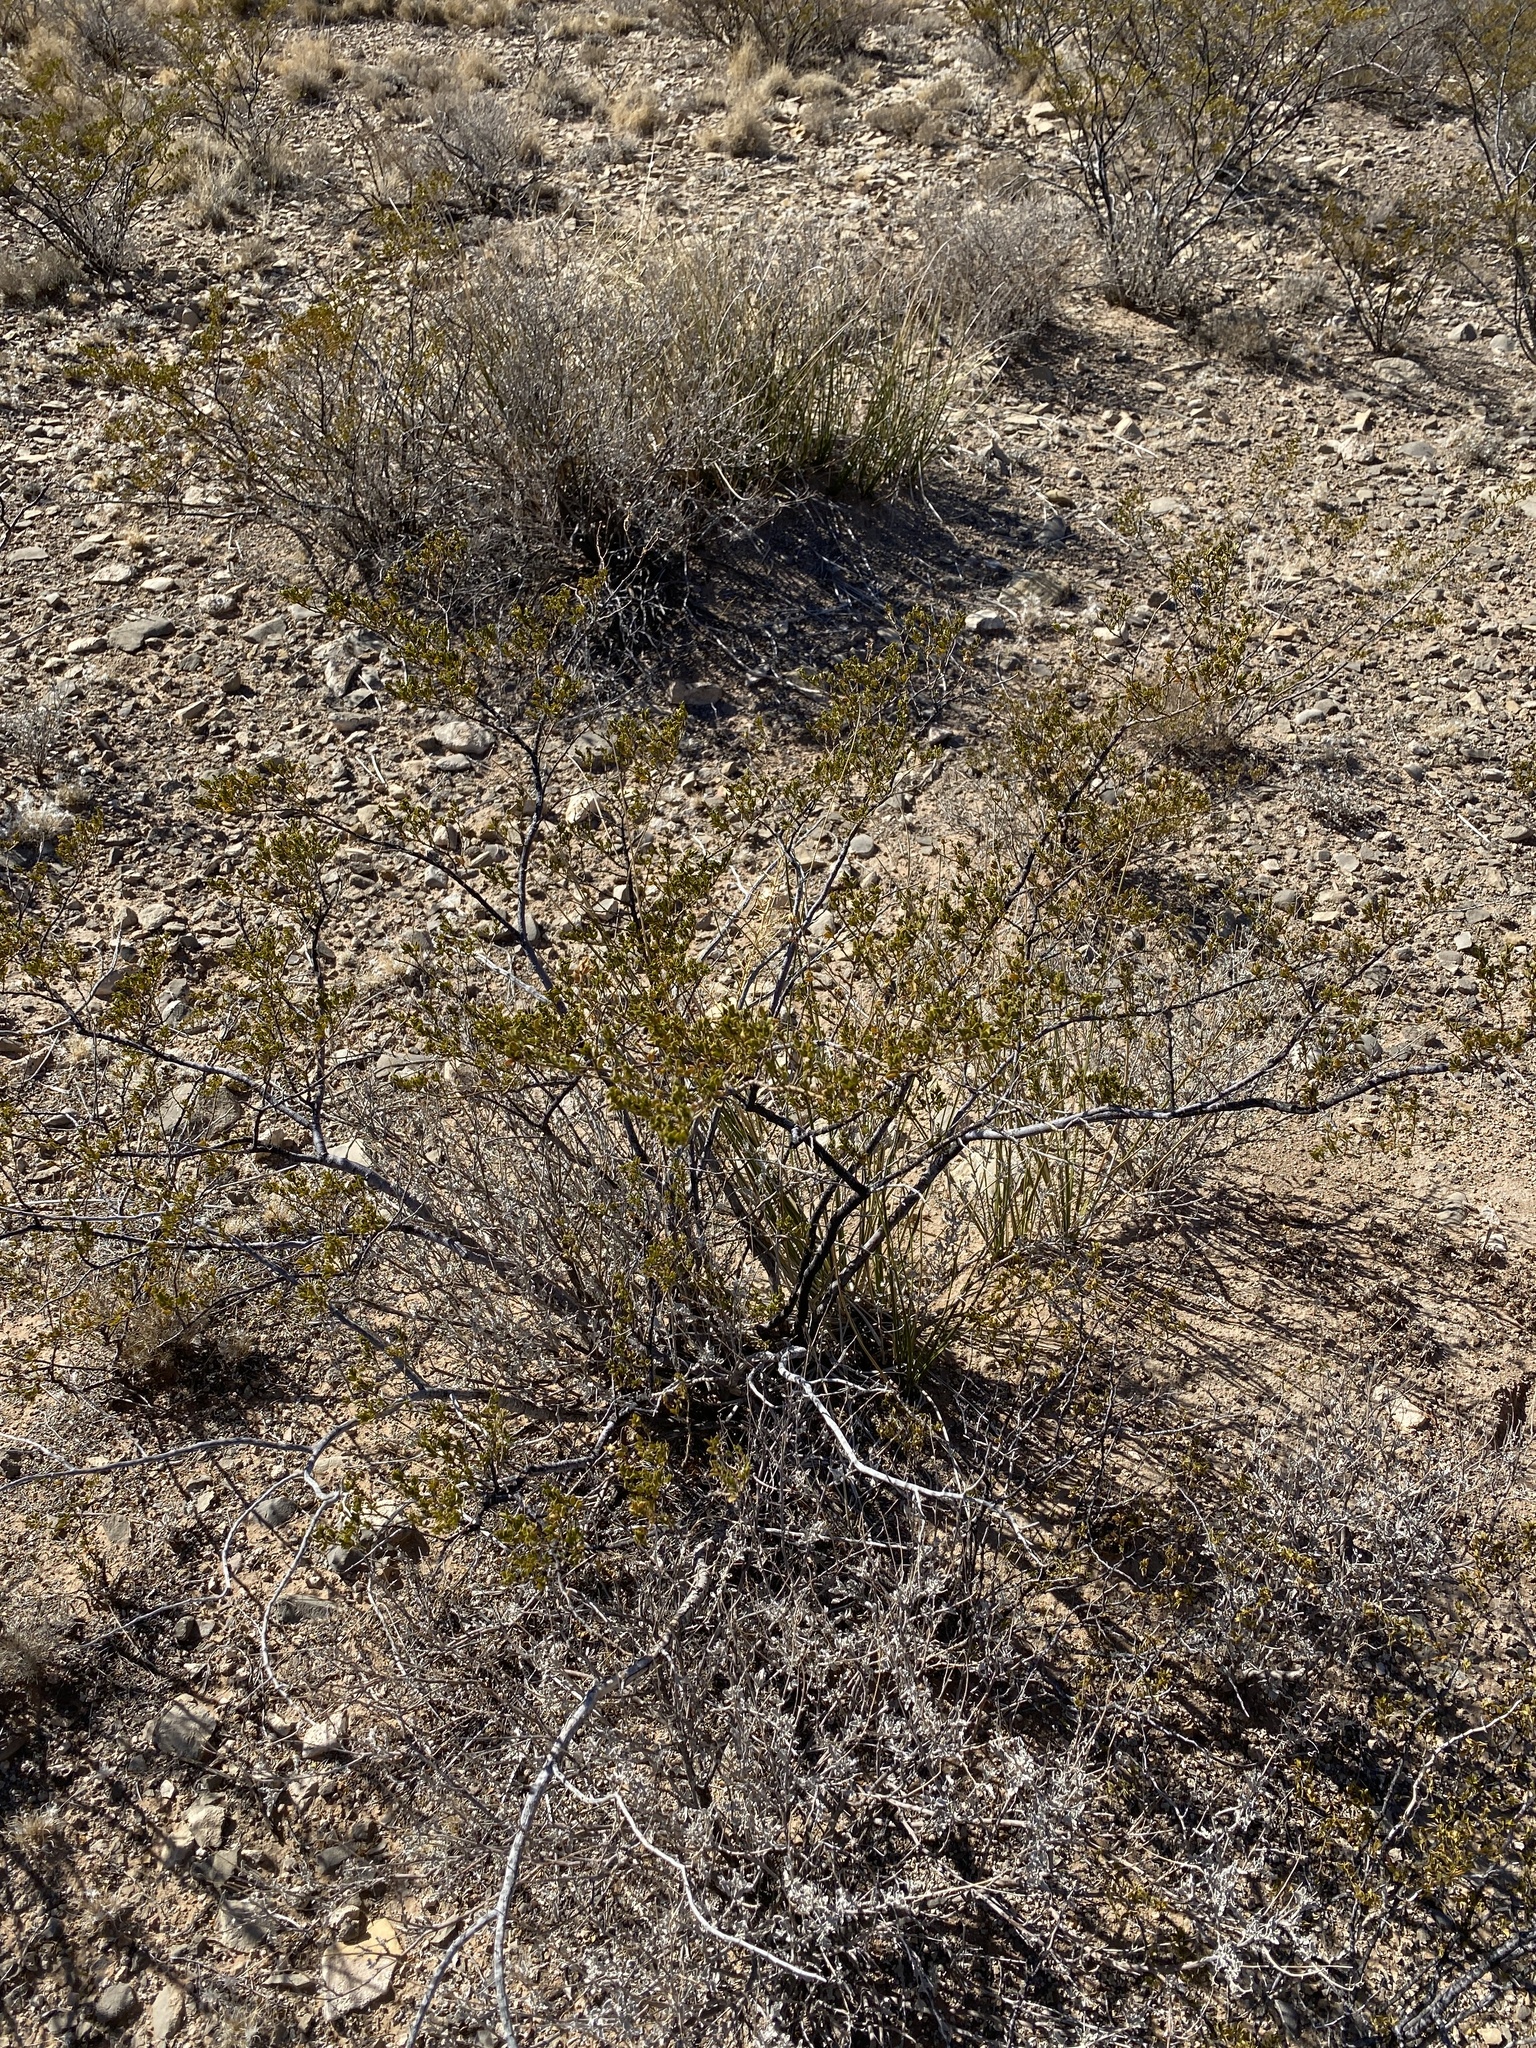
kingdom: Plantae
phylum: Tracheophyta
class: Magnoliopsida
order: Zygophyllales
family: Zygophyllaceae
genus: Larrea
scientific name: Larrea tridentata
